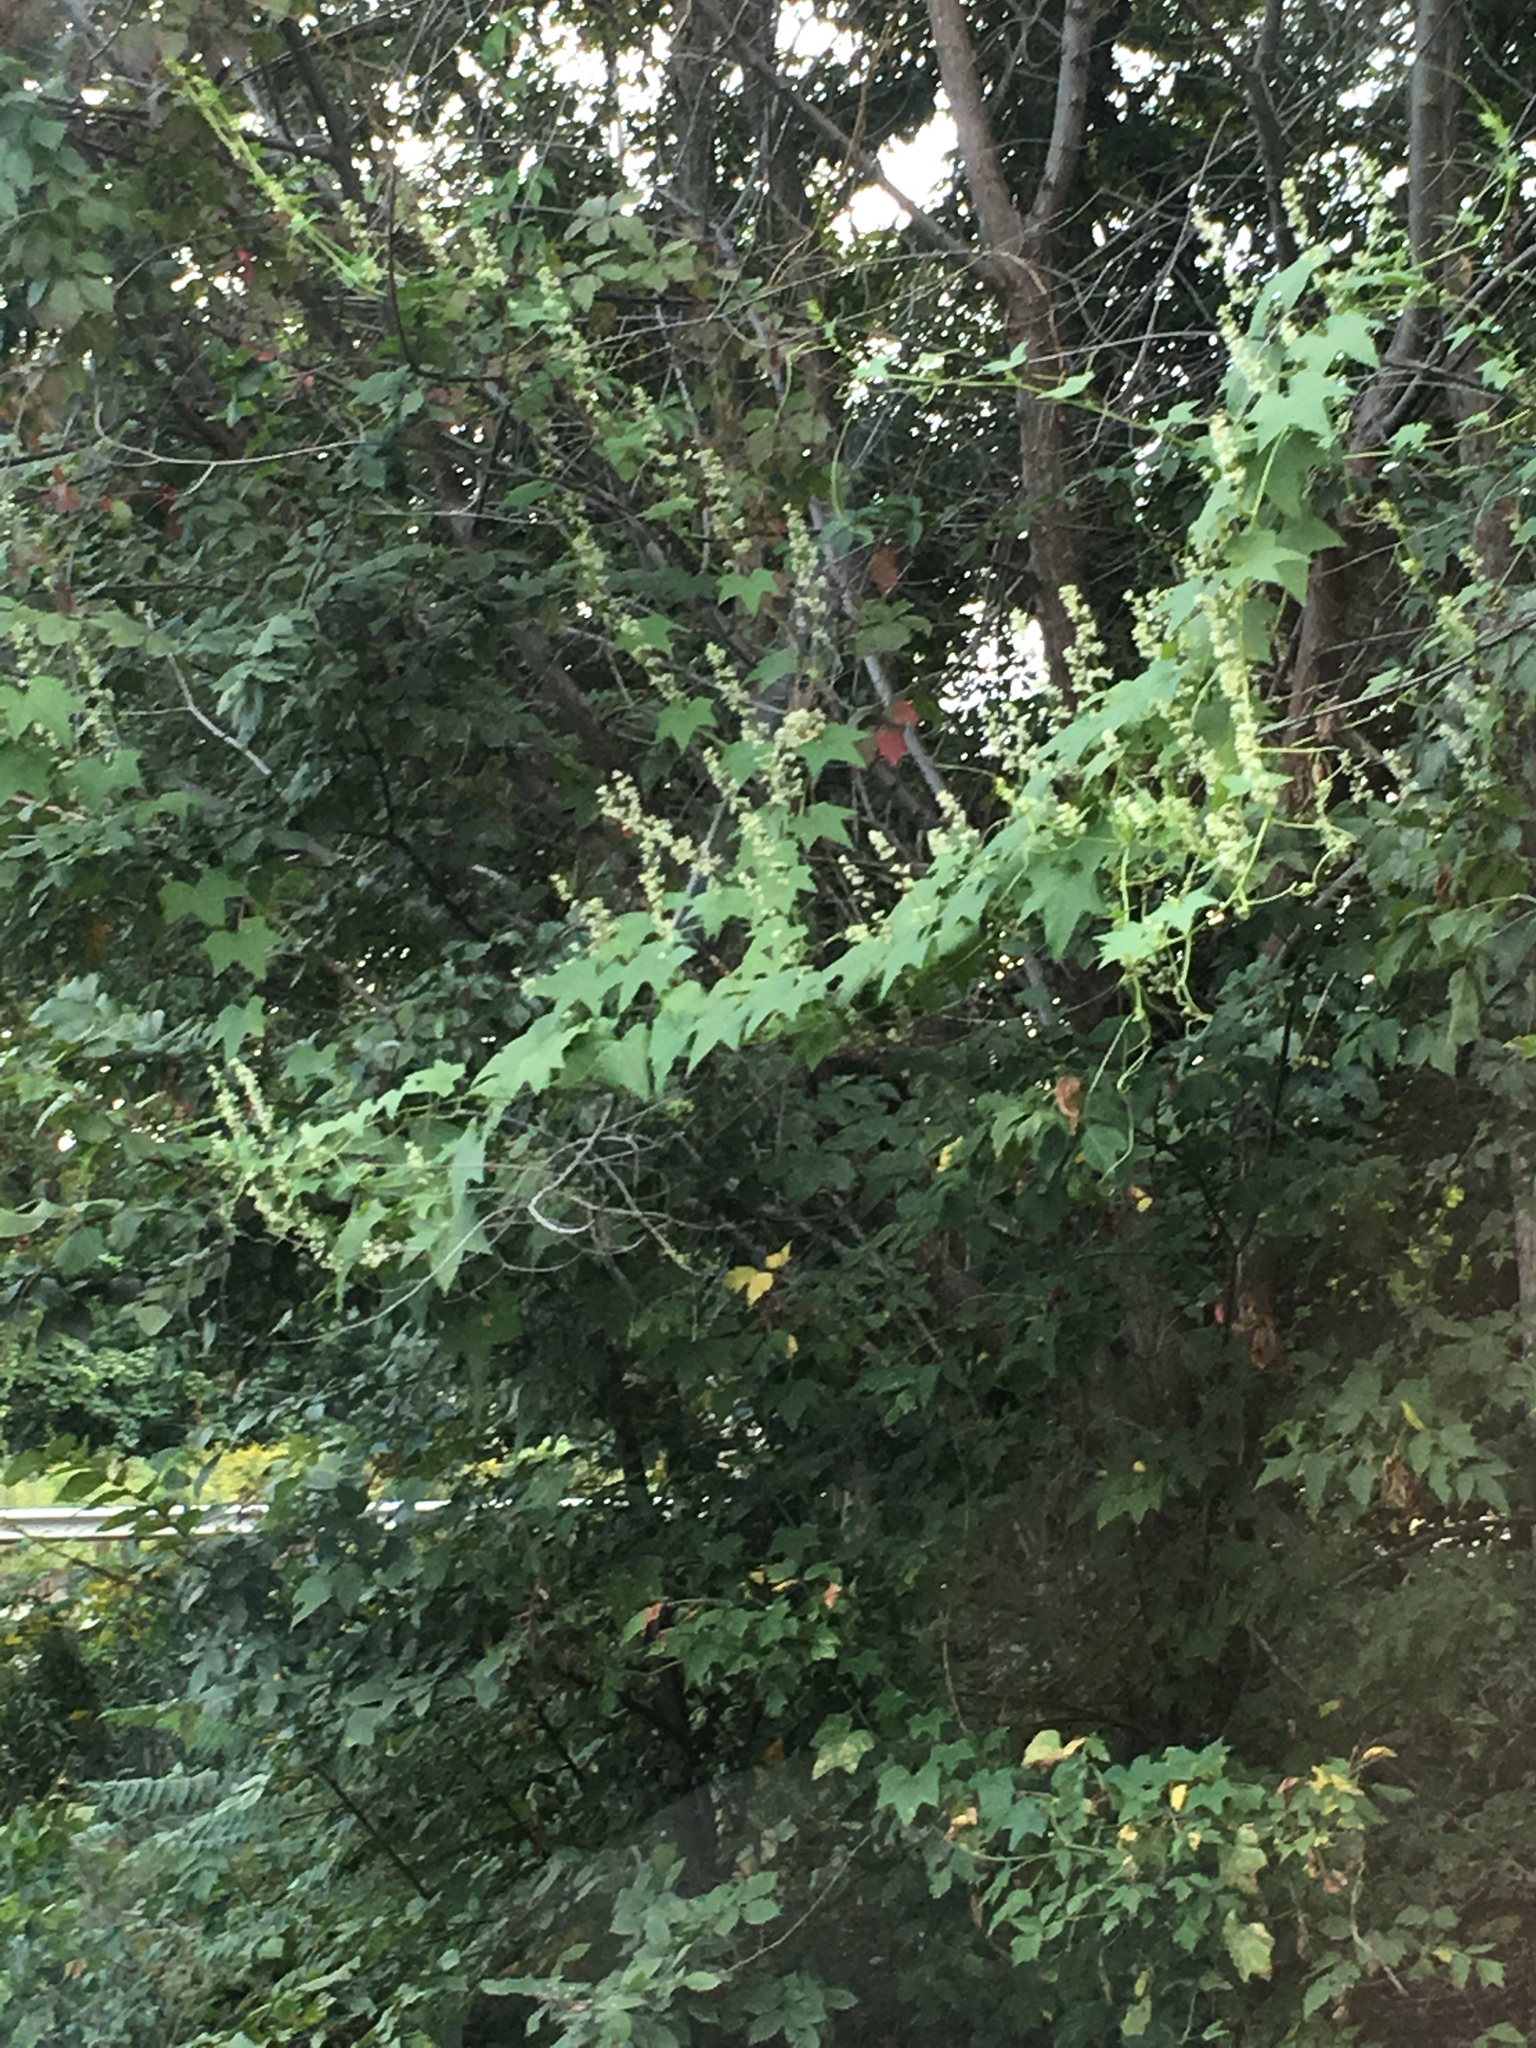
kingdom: Plantae
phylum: Tracheophyta
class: Magnoliopsida
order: Cucurbitales
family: Cucurbitaceae
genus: Echinocystis
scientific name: Echinocystis lobata
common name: Wild cucumber
